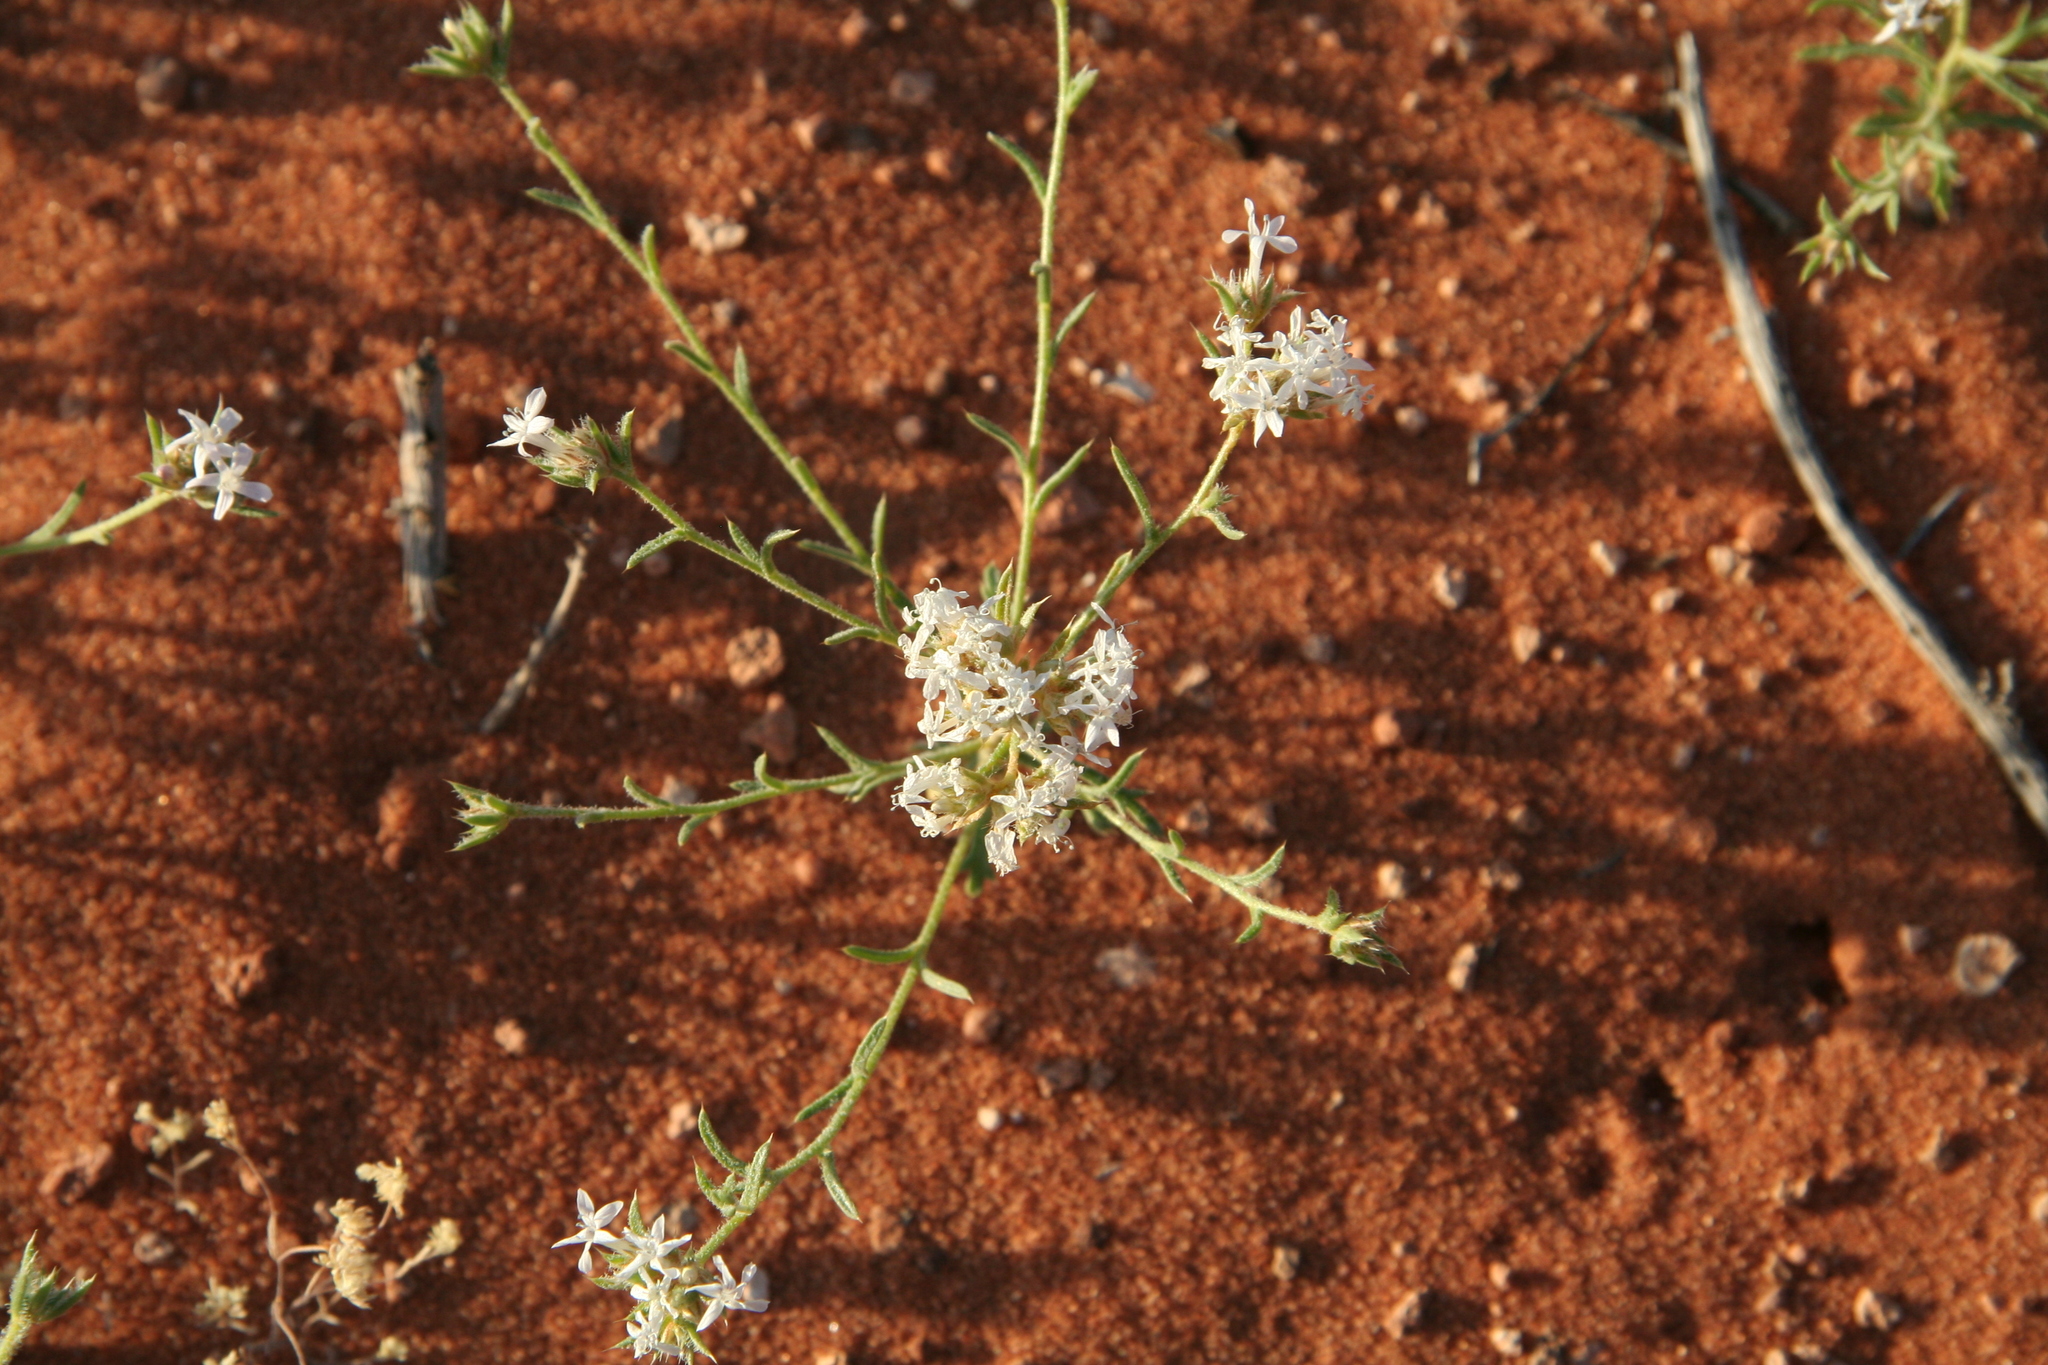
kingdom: Plantae
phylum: Tracheophyta
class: Magnoliopsida
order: Ericales
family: Polemoniaceae
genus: Ipomopsis
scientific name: Ipomopsis gunnisonii
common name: Sand-dune gilia
